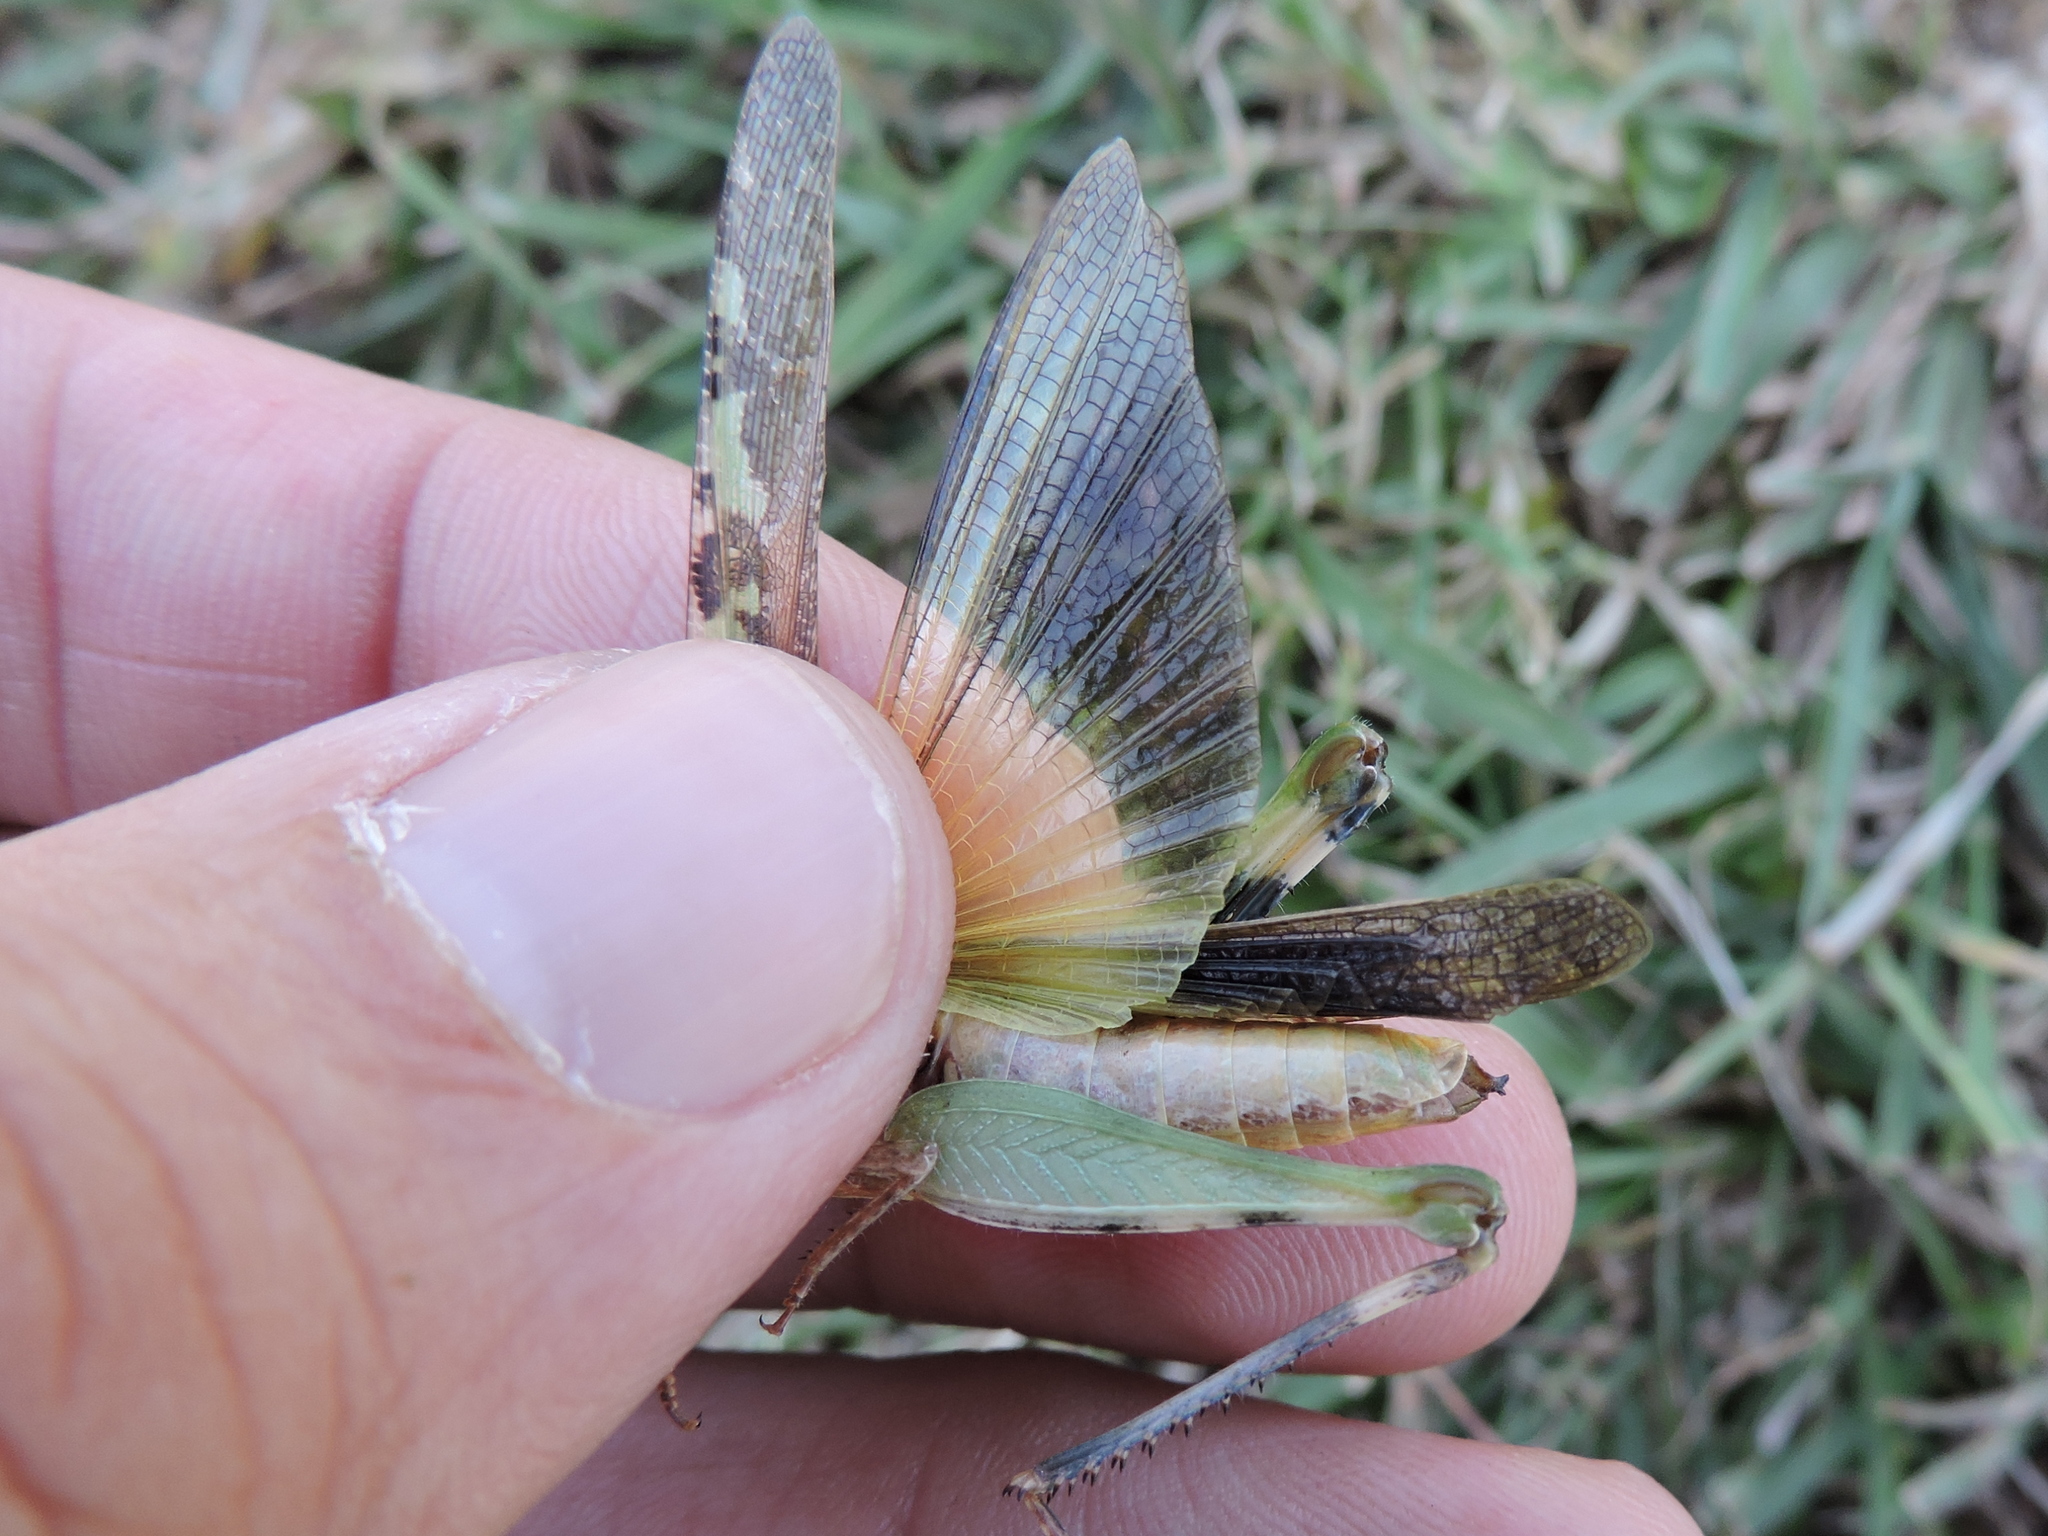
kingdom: Animalia
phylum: Arthropoda
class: Insecta
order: Orthoptera
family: Acrididae
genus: Chortophaga
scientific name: Chortophaga viridifasciata
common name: Green-striped grasshopper
